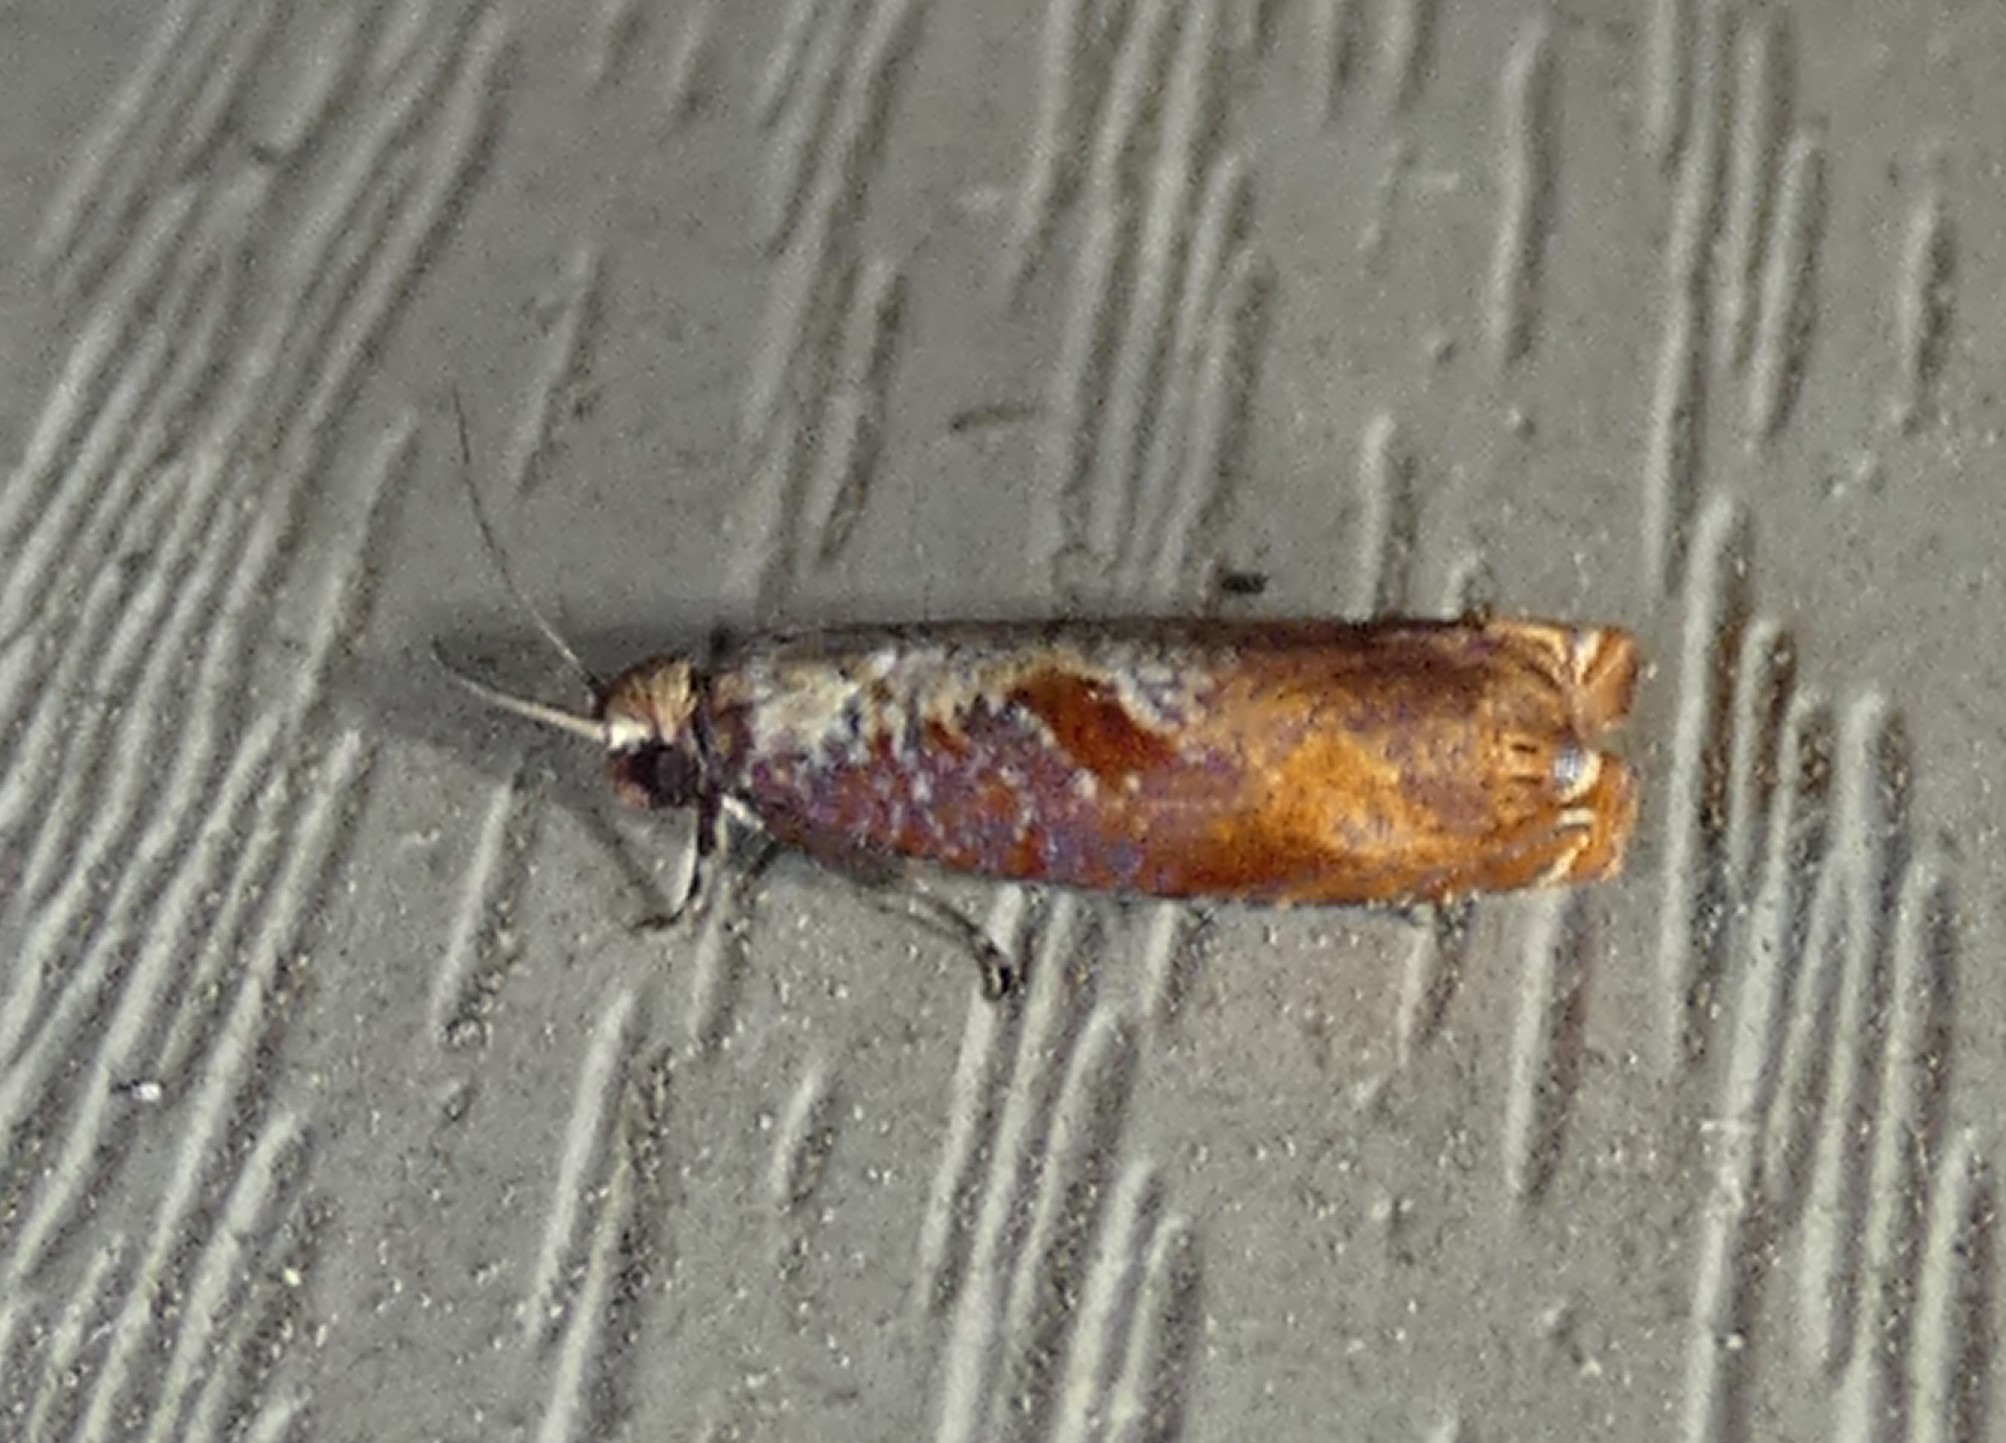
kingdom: Animalia
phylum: Arthropoda
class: Insecta
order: Lepidoptera
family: Tortricidae
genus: Episimus
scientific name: Episimus tyrius
